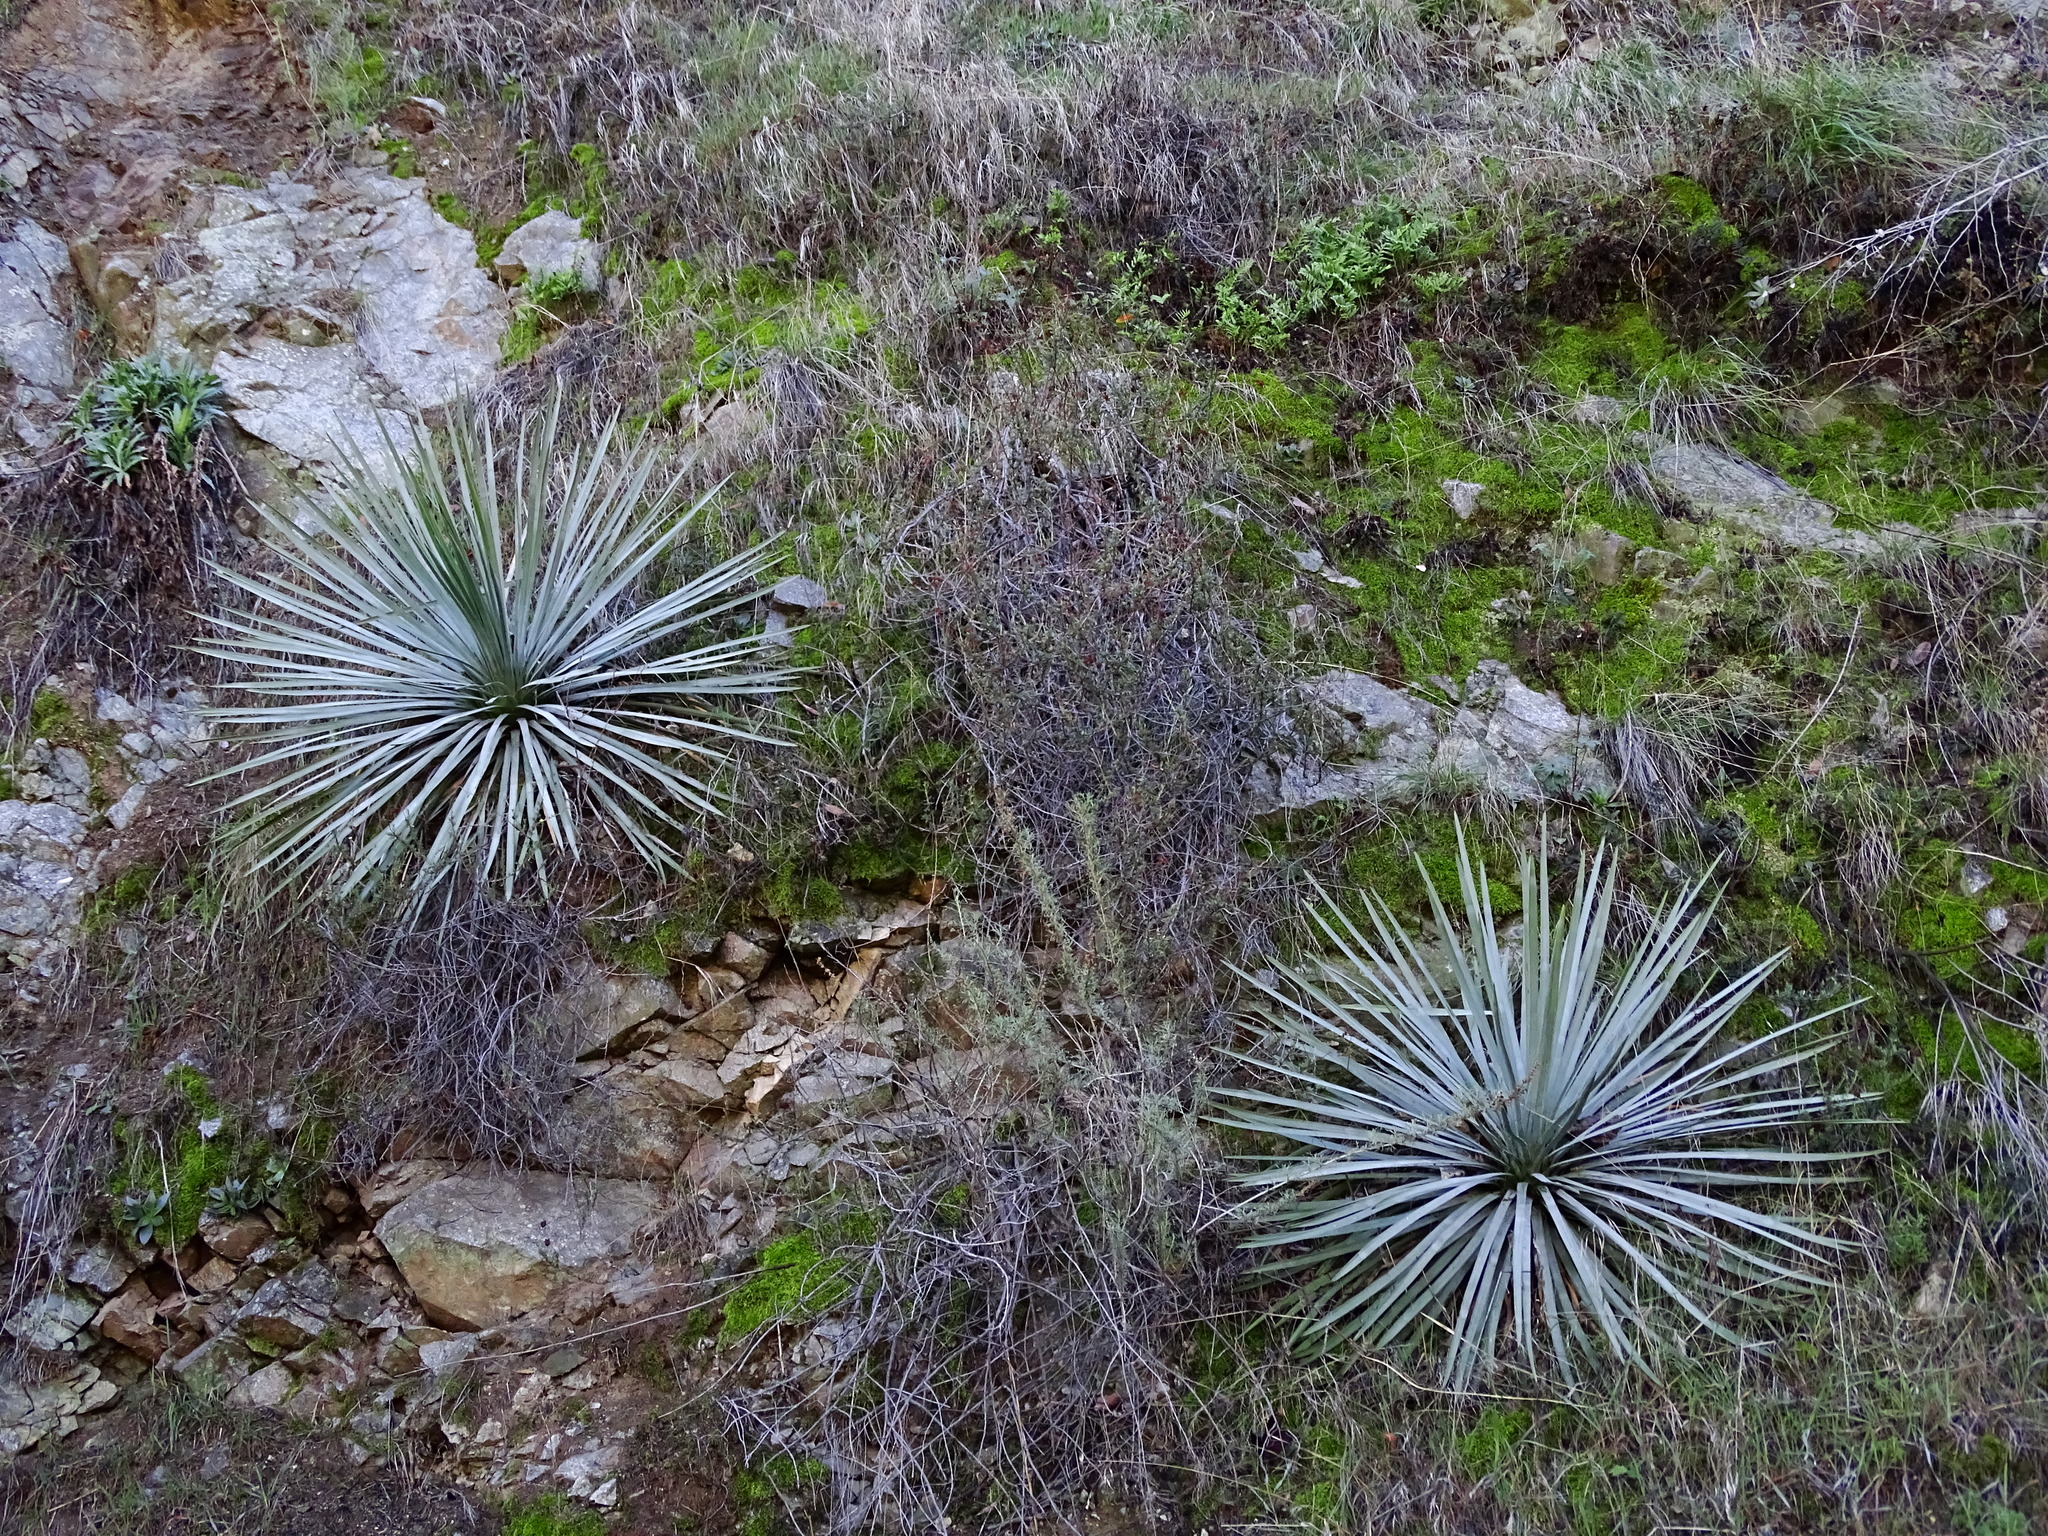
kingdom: Plantae
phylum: Tracheophyta
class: Liliopsida
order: Asparagales
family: Asparagaceae
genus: Hesperoyucca
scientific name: Hesperoyucca whipplei
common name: Our lord's-candle
